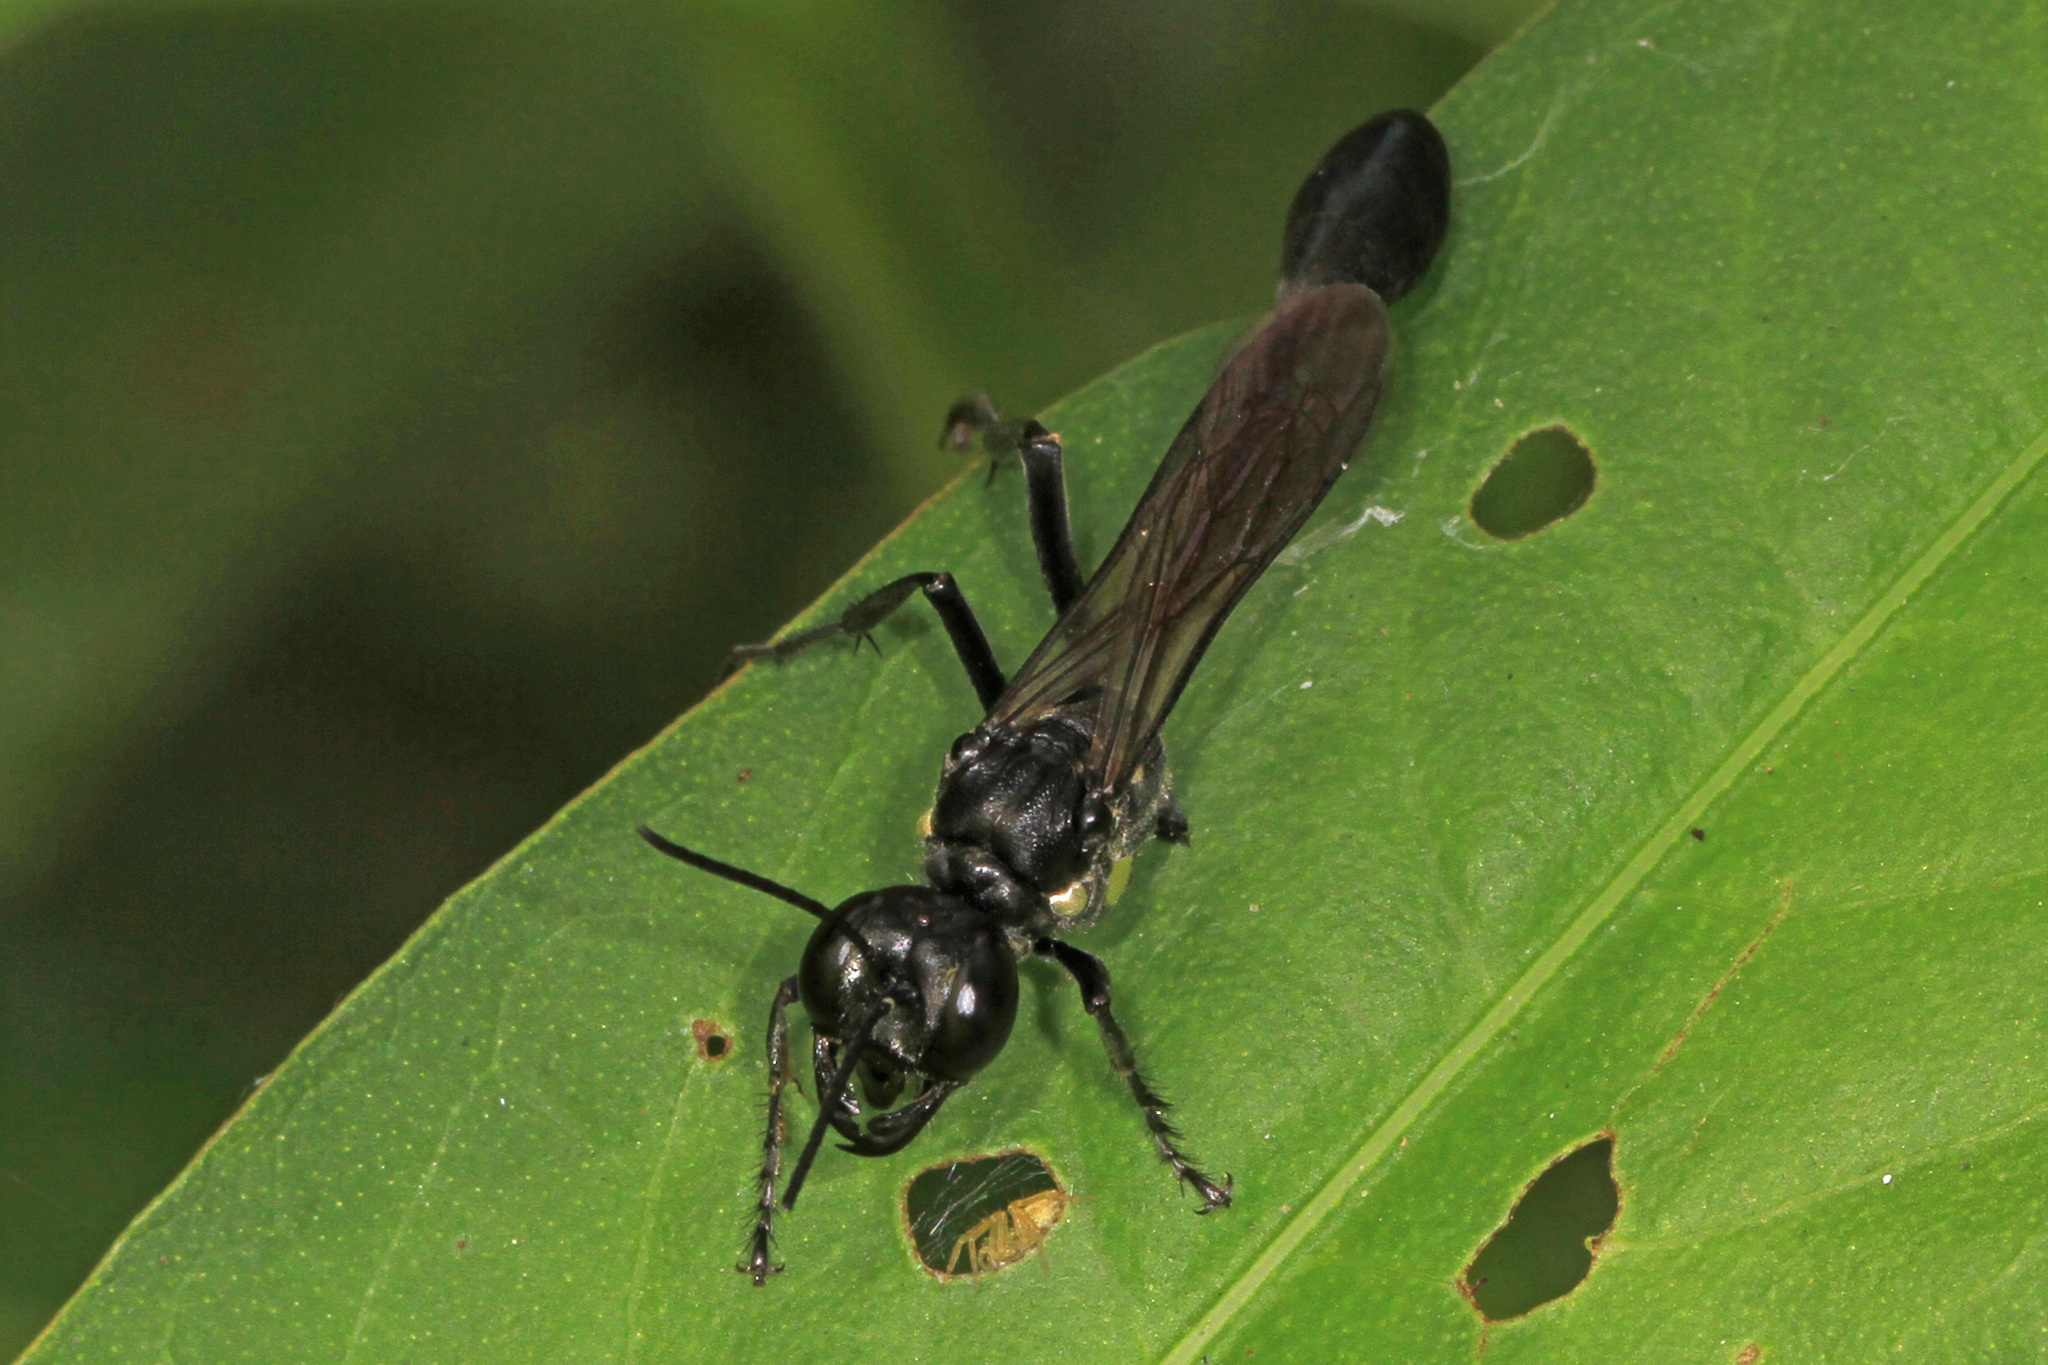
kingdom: Animalia
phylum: Arthropoda
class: Insecta
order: Hymenoptera
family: Sphecidae
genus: Eremnophila
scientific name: Eremnophila aureonotata
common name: Gold-marked thread-waisted wasp
